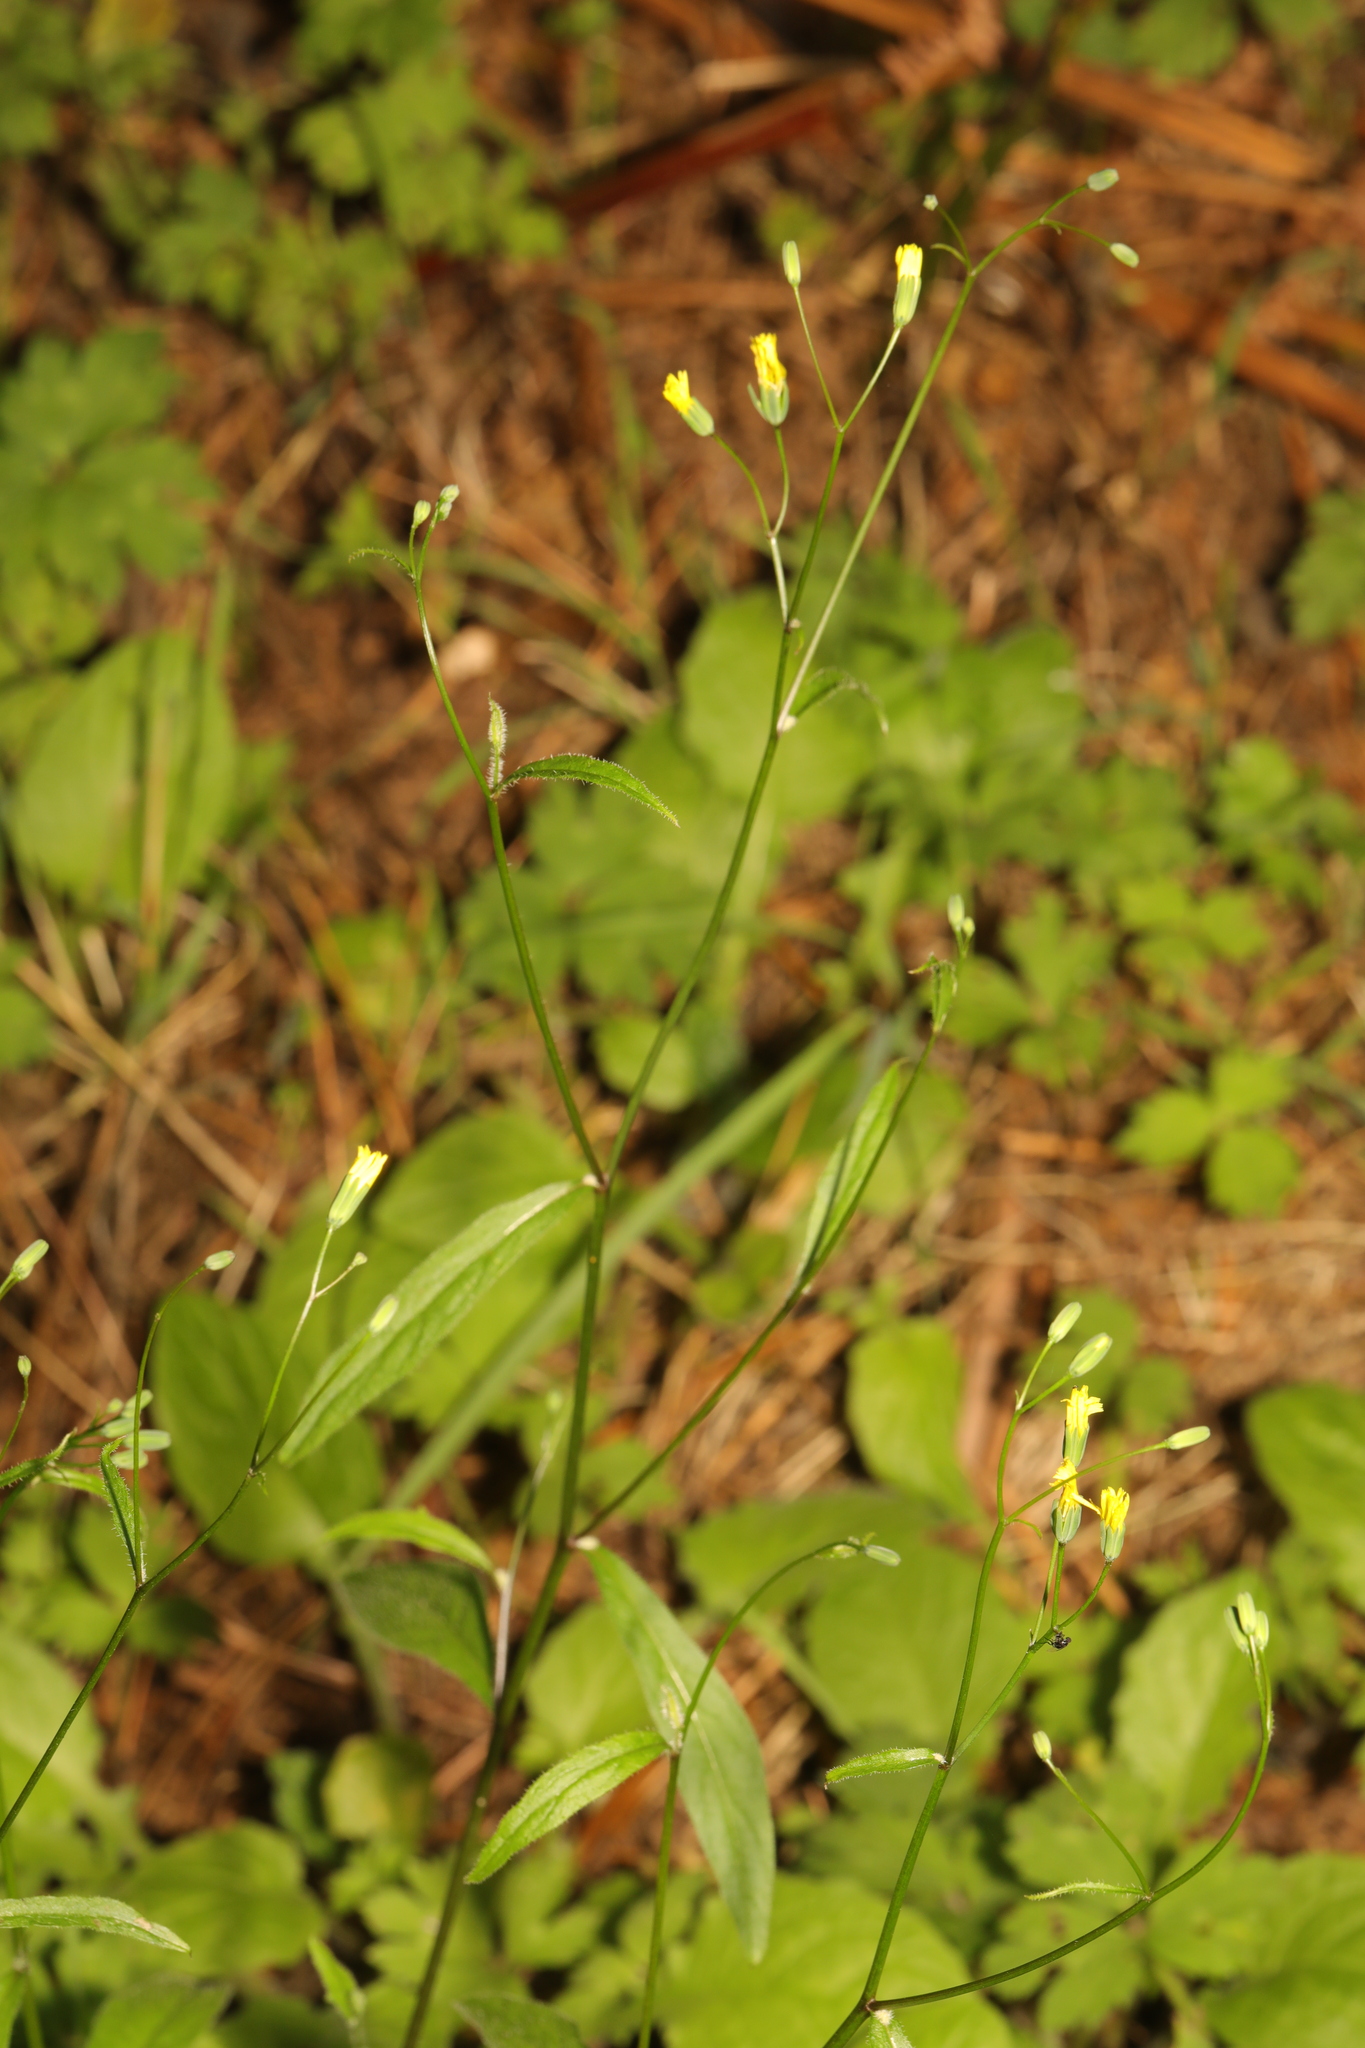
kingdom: Plantae
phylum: Tracheophyta
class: Magnoliopsida
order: Asterales
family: Asteraceae
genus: Lapsana
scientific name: Lapsana communis
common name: Nipplewort
